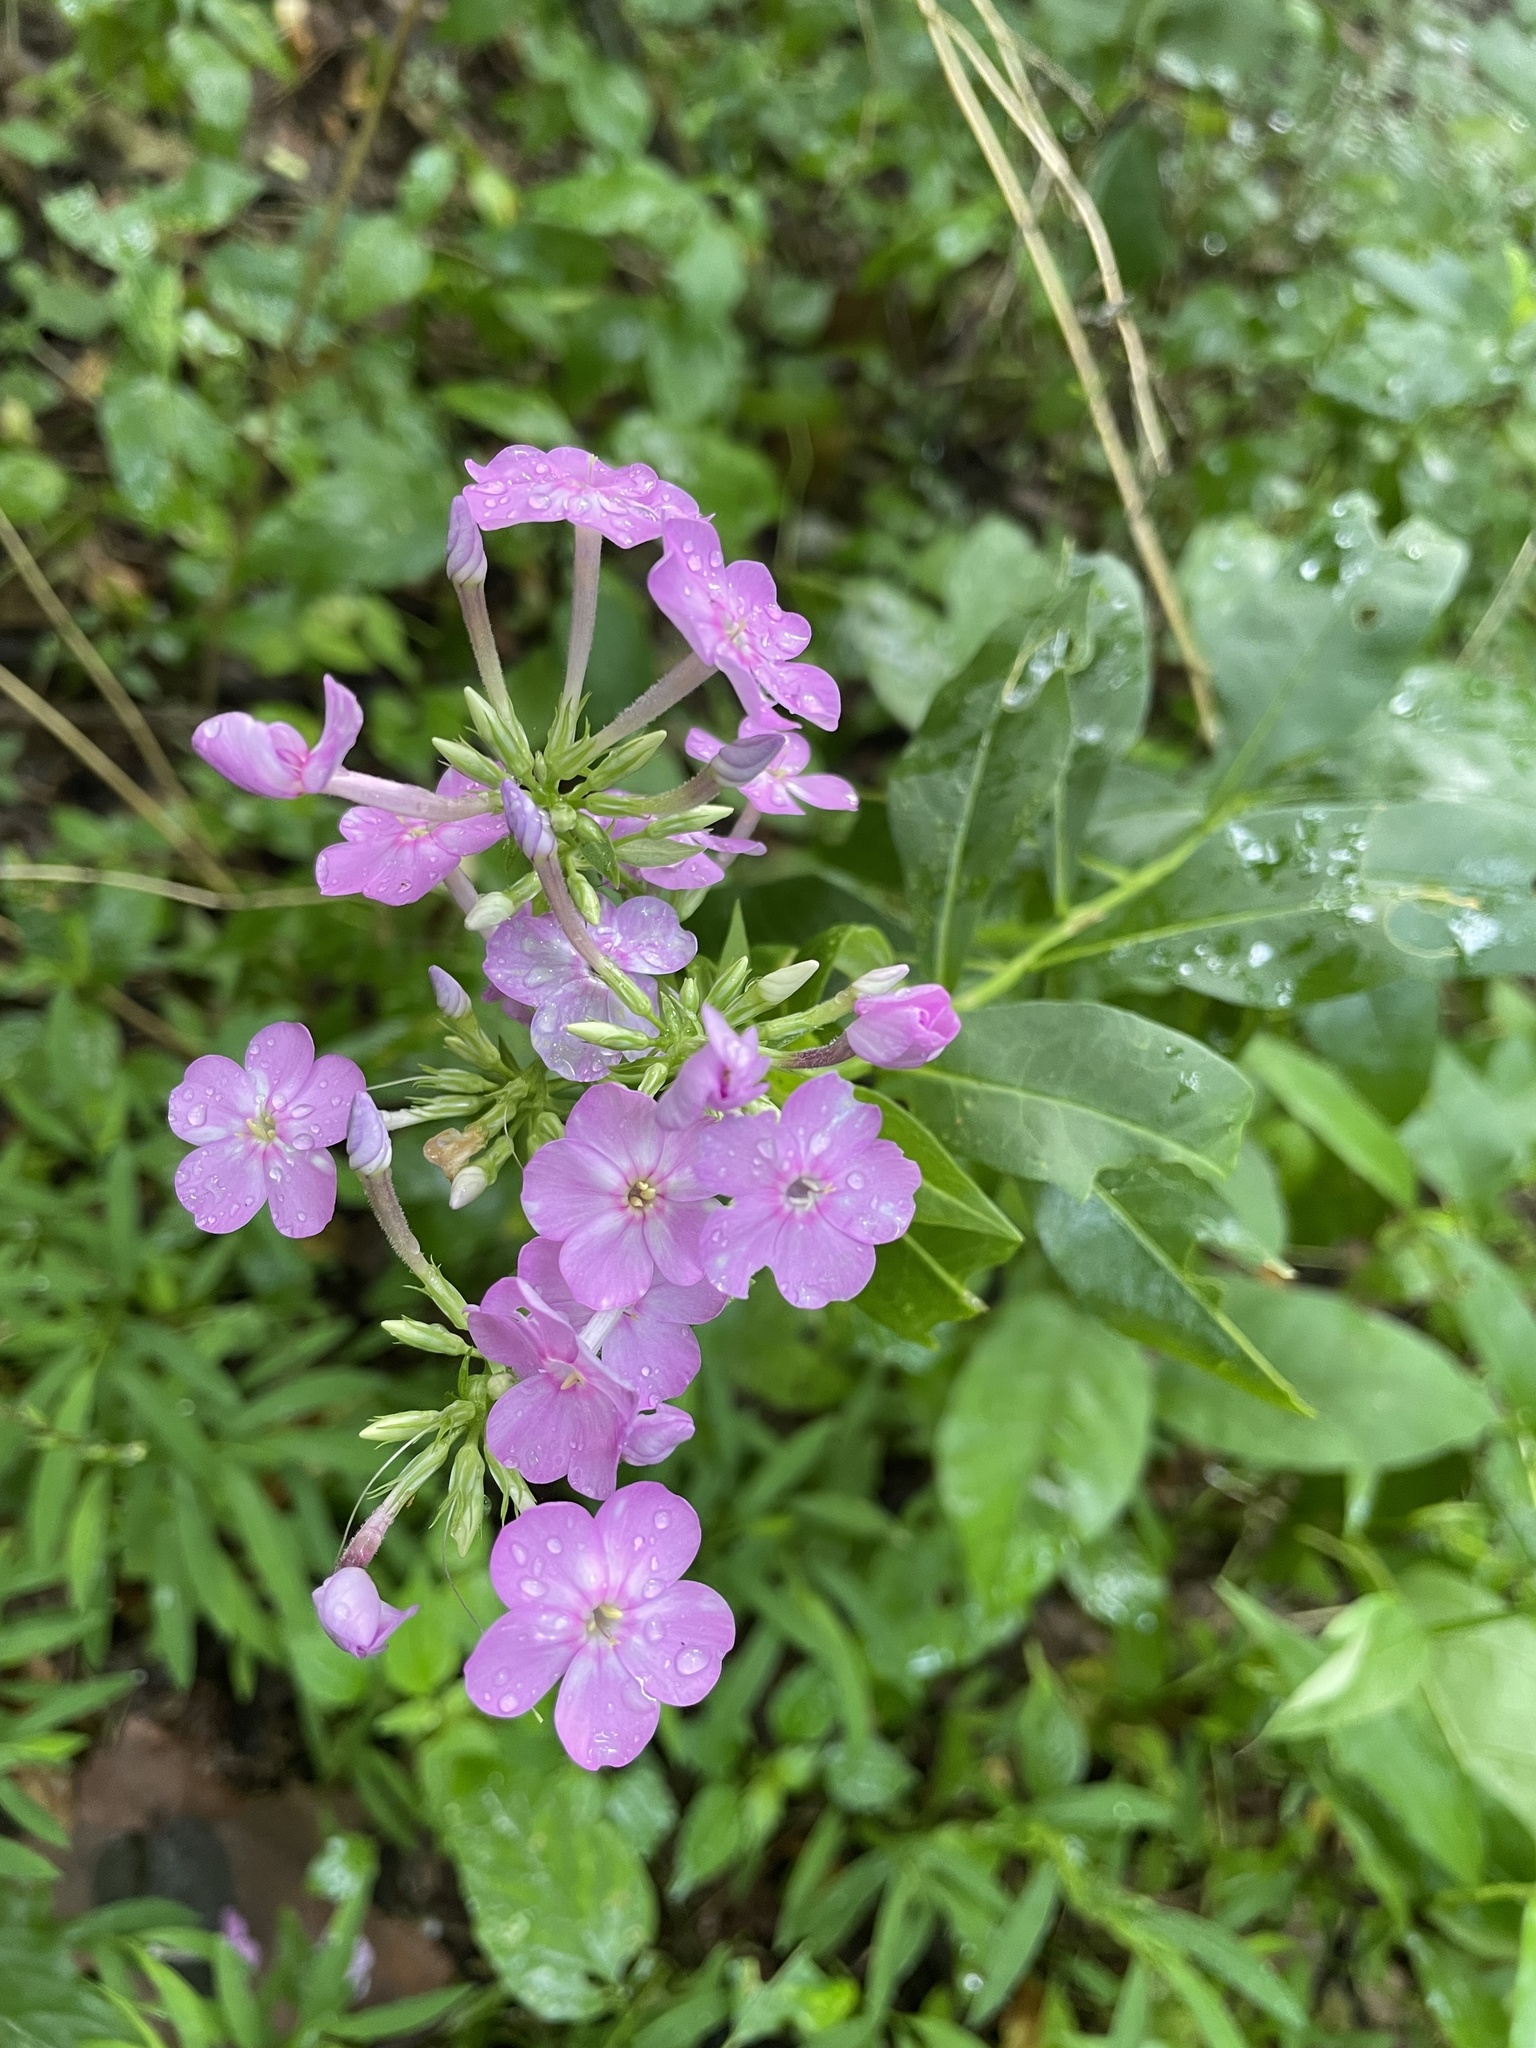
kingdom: Plantae
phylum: Tracheophyta
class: Magnoliopsida
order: Ericales
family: Polemoniaceae
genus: Phlox
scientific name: Phlox paniculata
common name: Fall phlox
